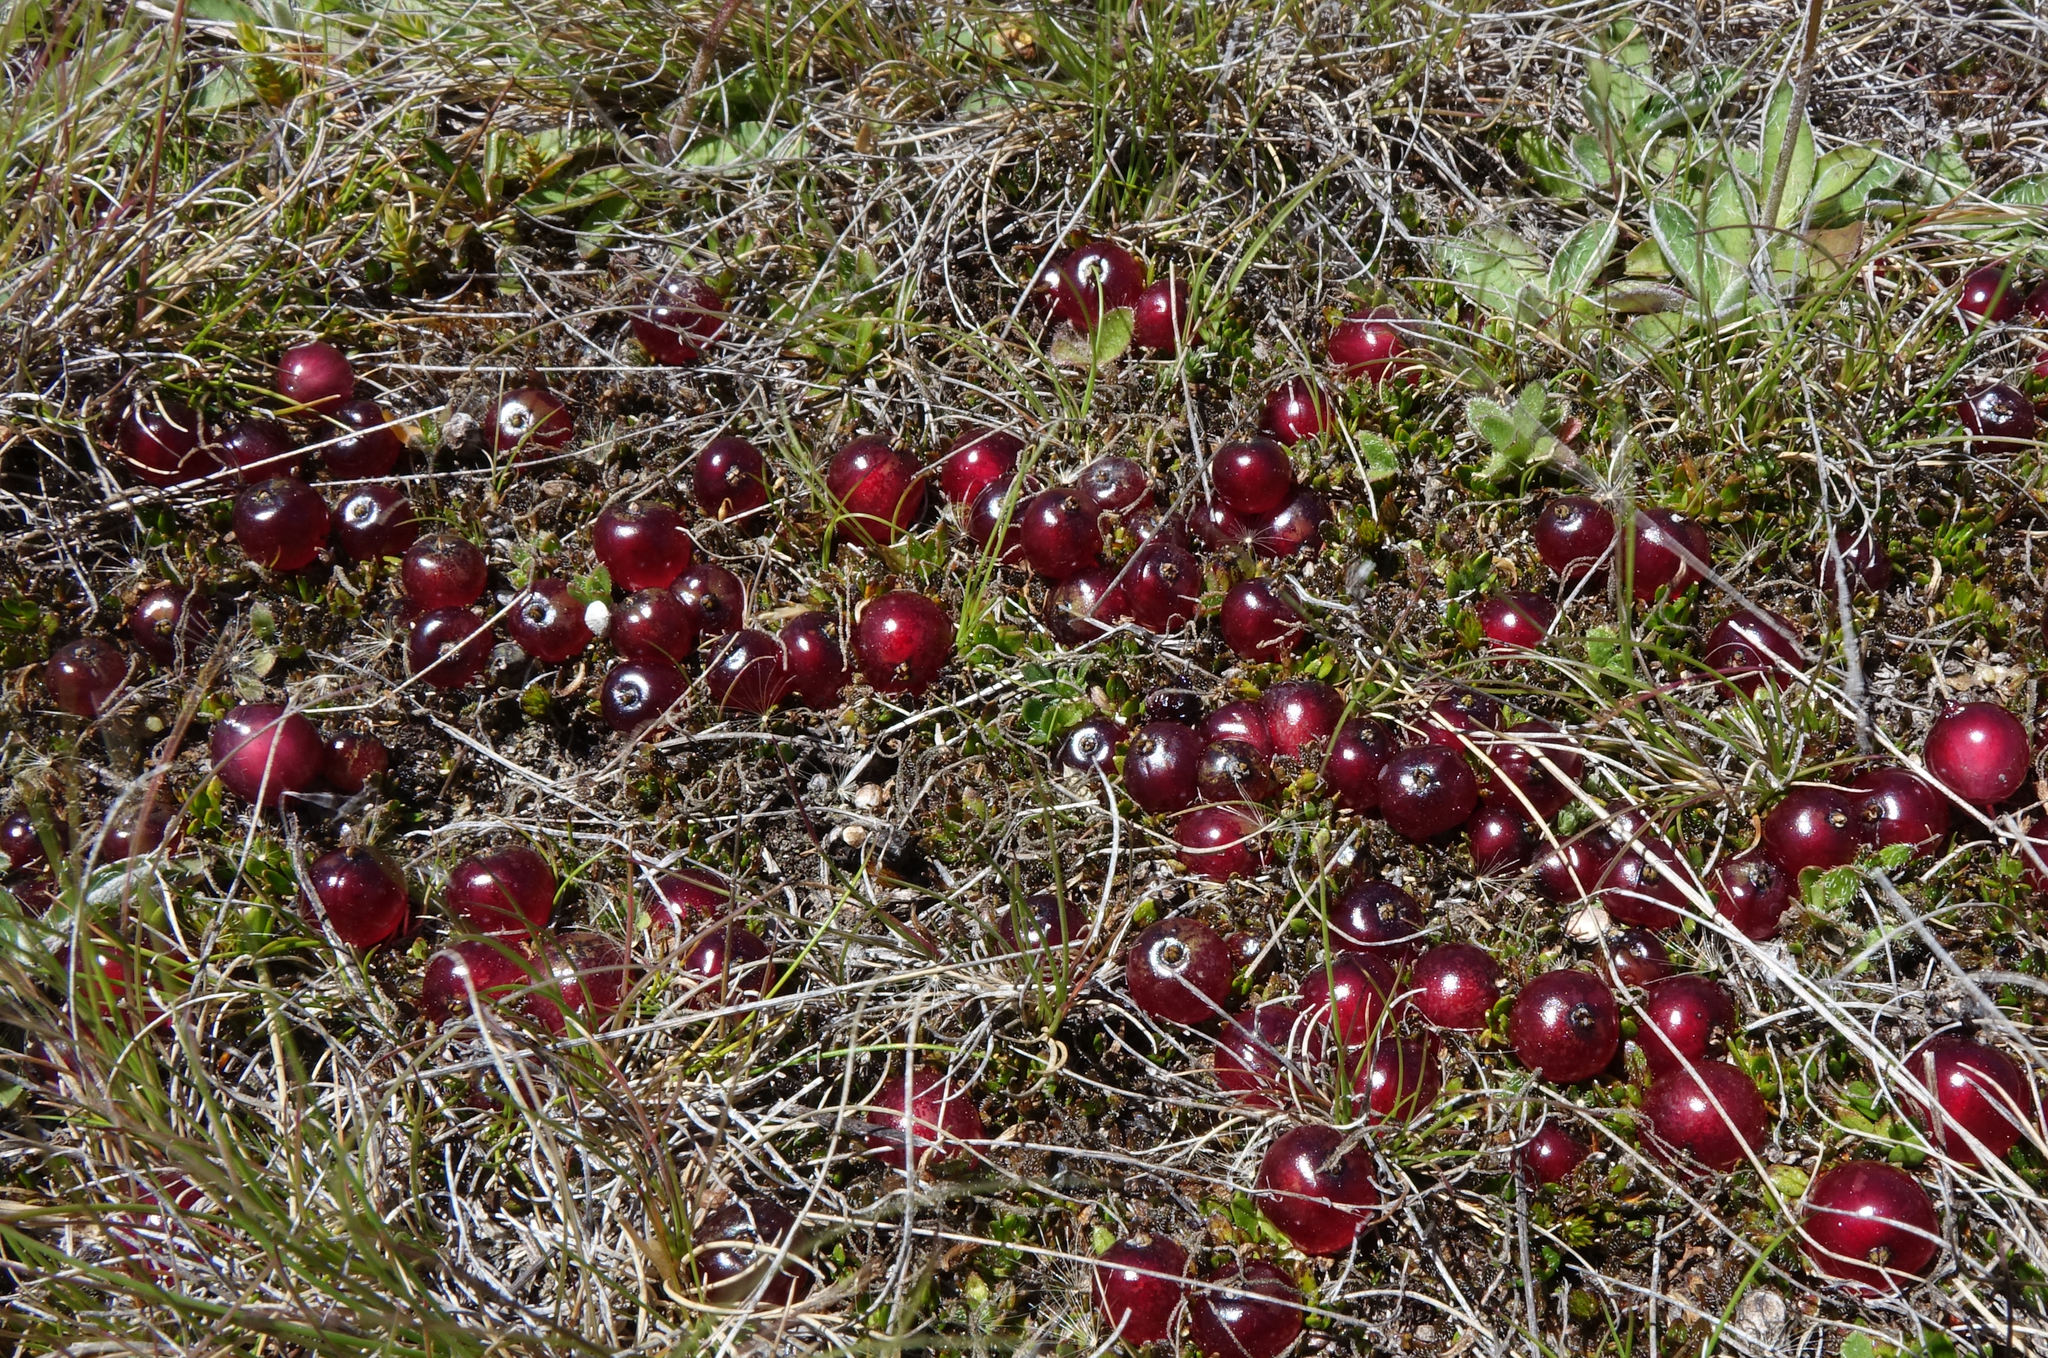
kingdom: Plantae
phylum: Tracheophyta
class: Magnoliopsida
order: Gentianales
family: Rubiaceae
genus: Coprosma
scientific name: Coprosma atropurpurea
